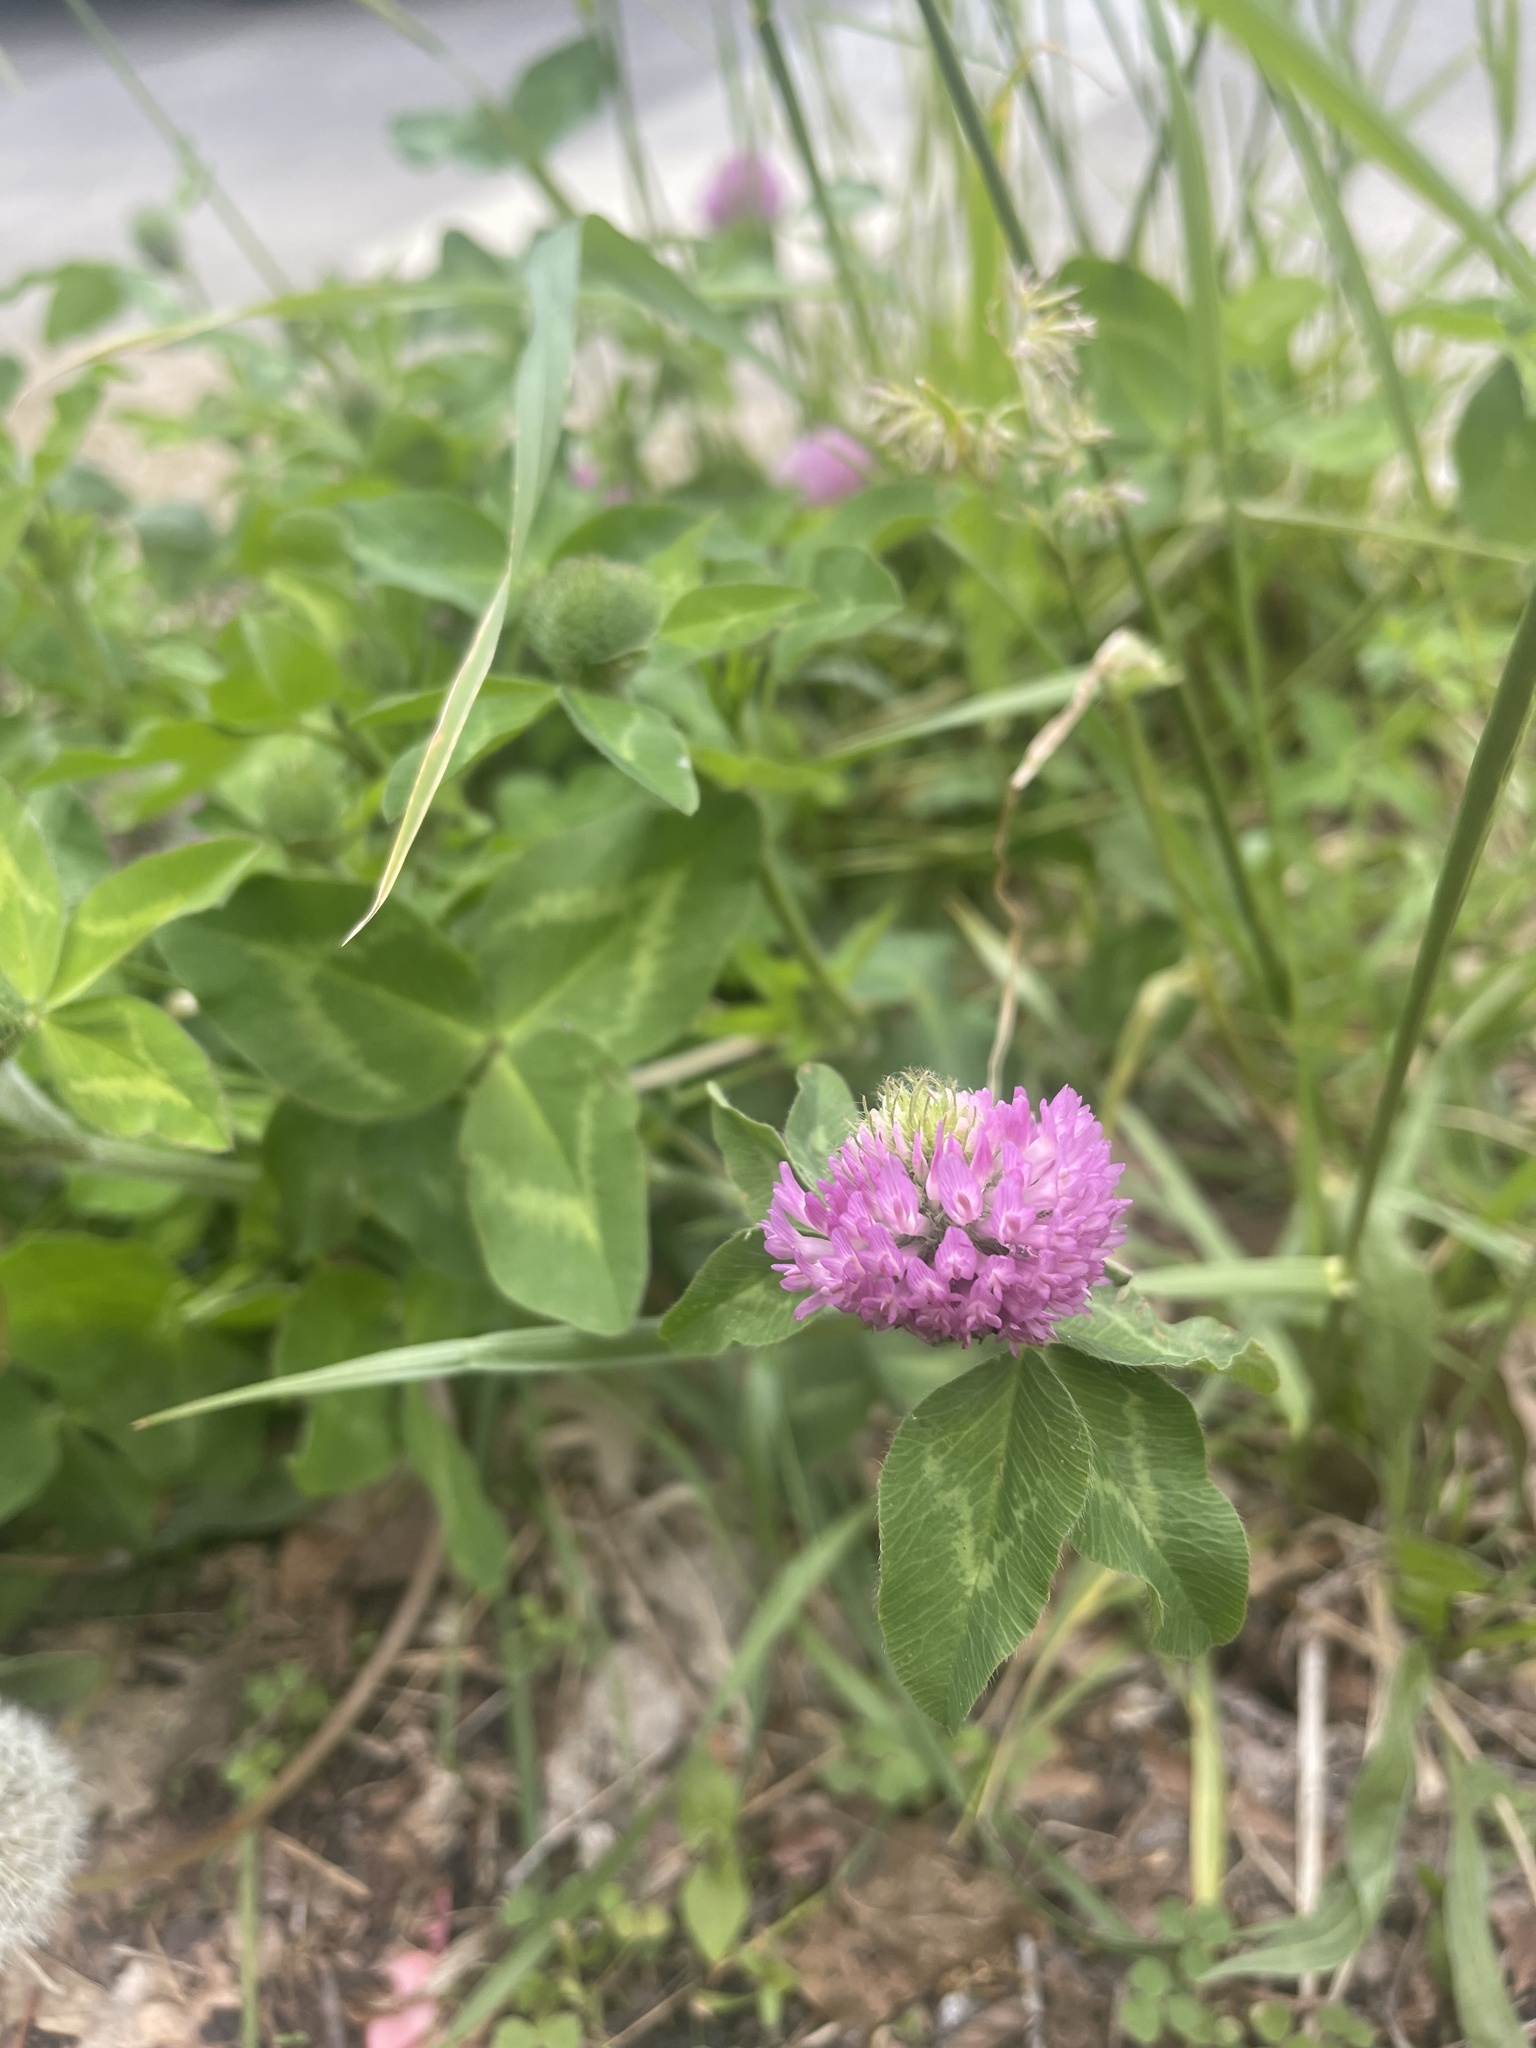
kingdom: Plantae
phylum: Tracheophyta
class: Magnoliopsida
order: Fabales
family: Fabaceae
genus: Trifolium
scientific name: Trifolium pratense
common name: Red clover
